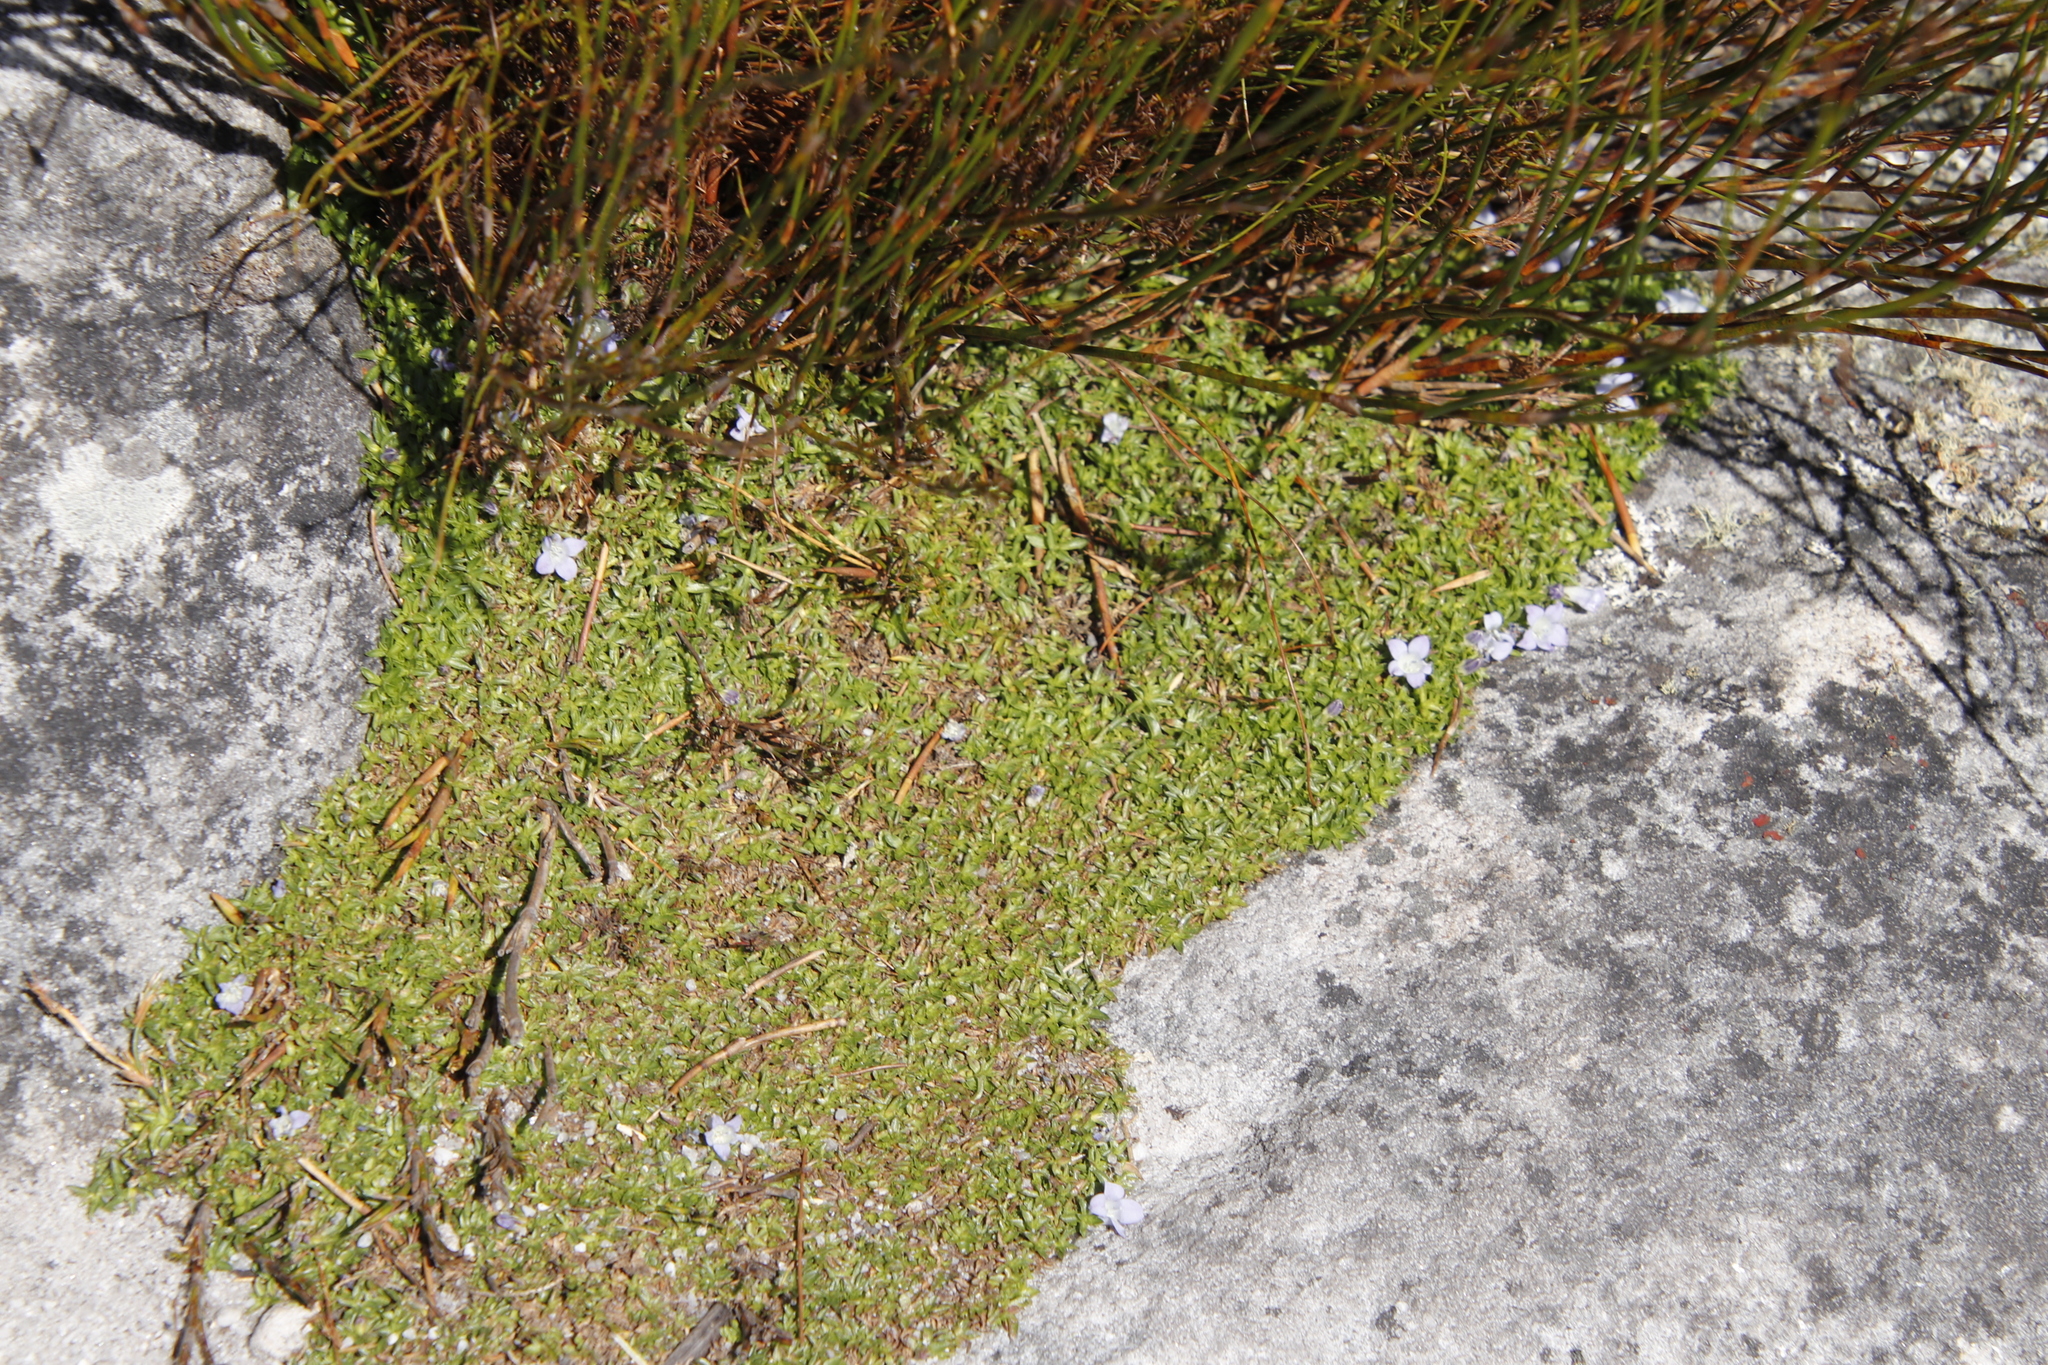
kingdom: Plantae
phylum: Tracheophyta
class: Magnoliopsida
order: Asterales
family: Campanulaceae
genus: Roella
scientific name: Roella muscosa
